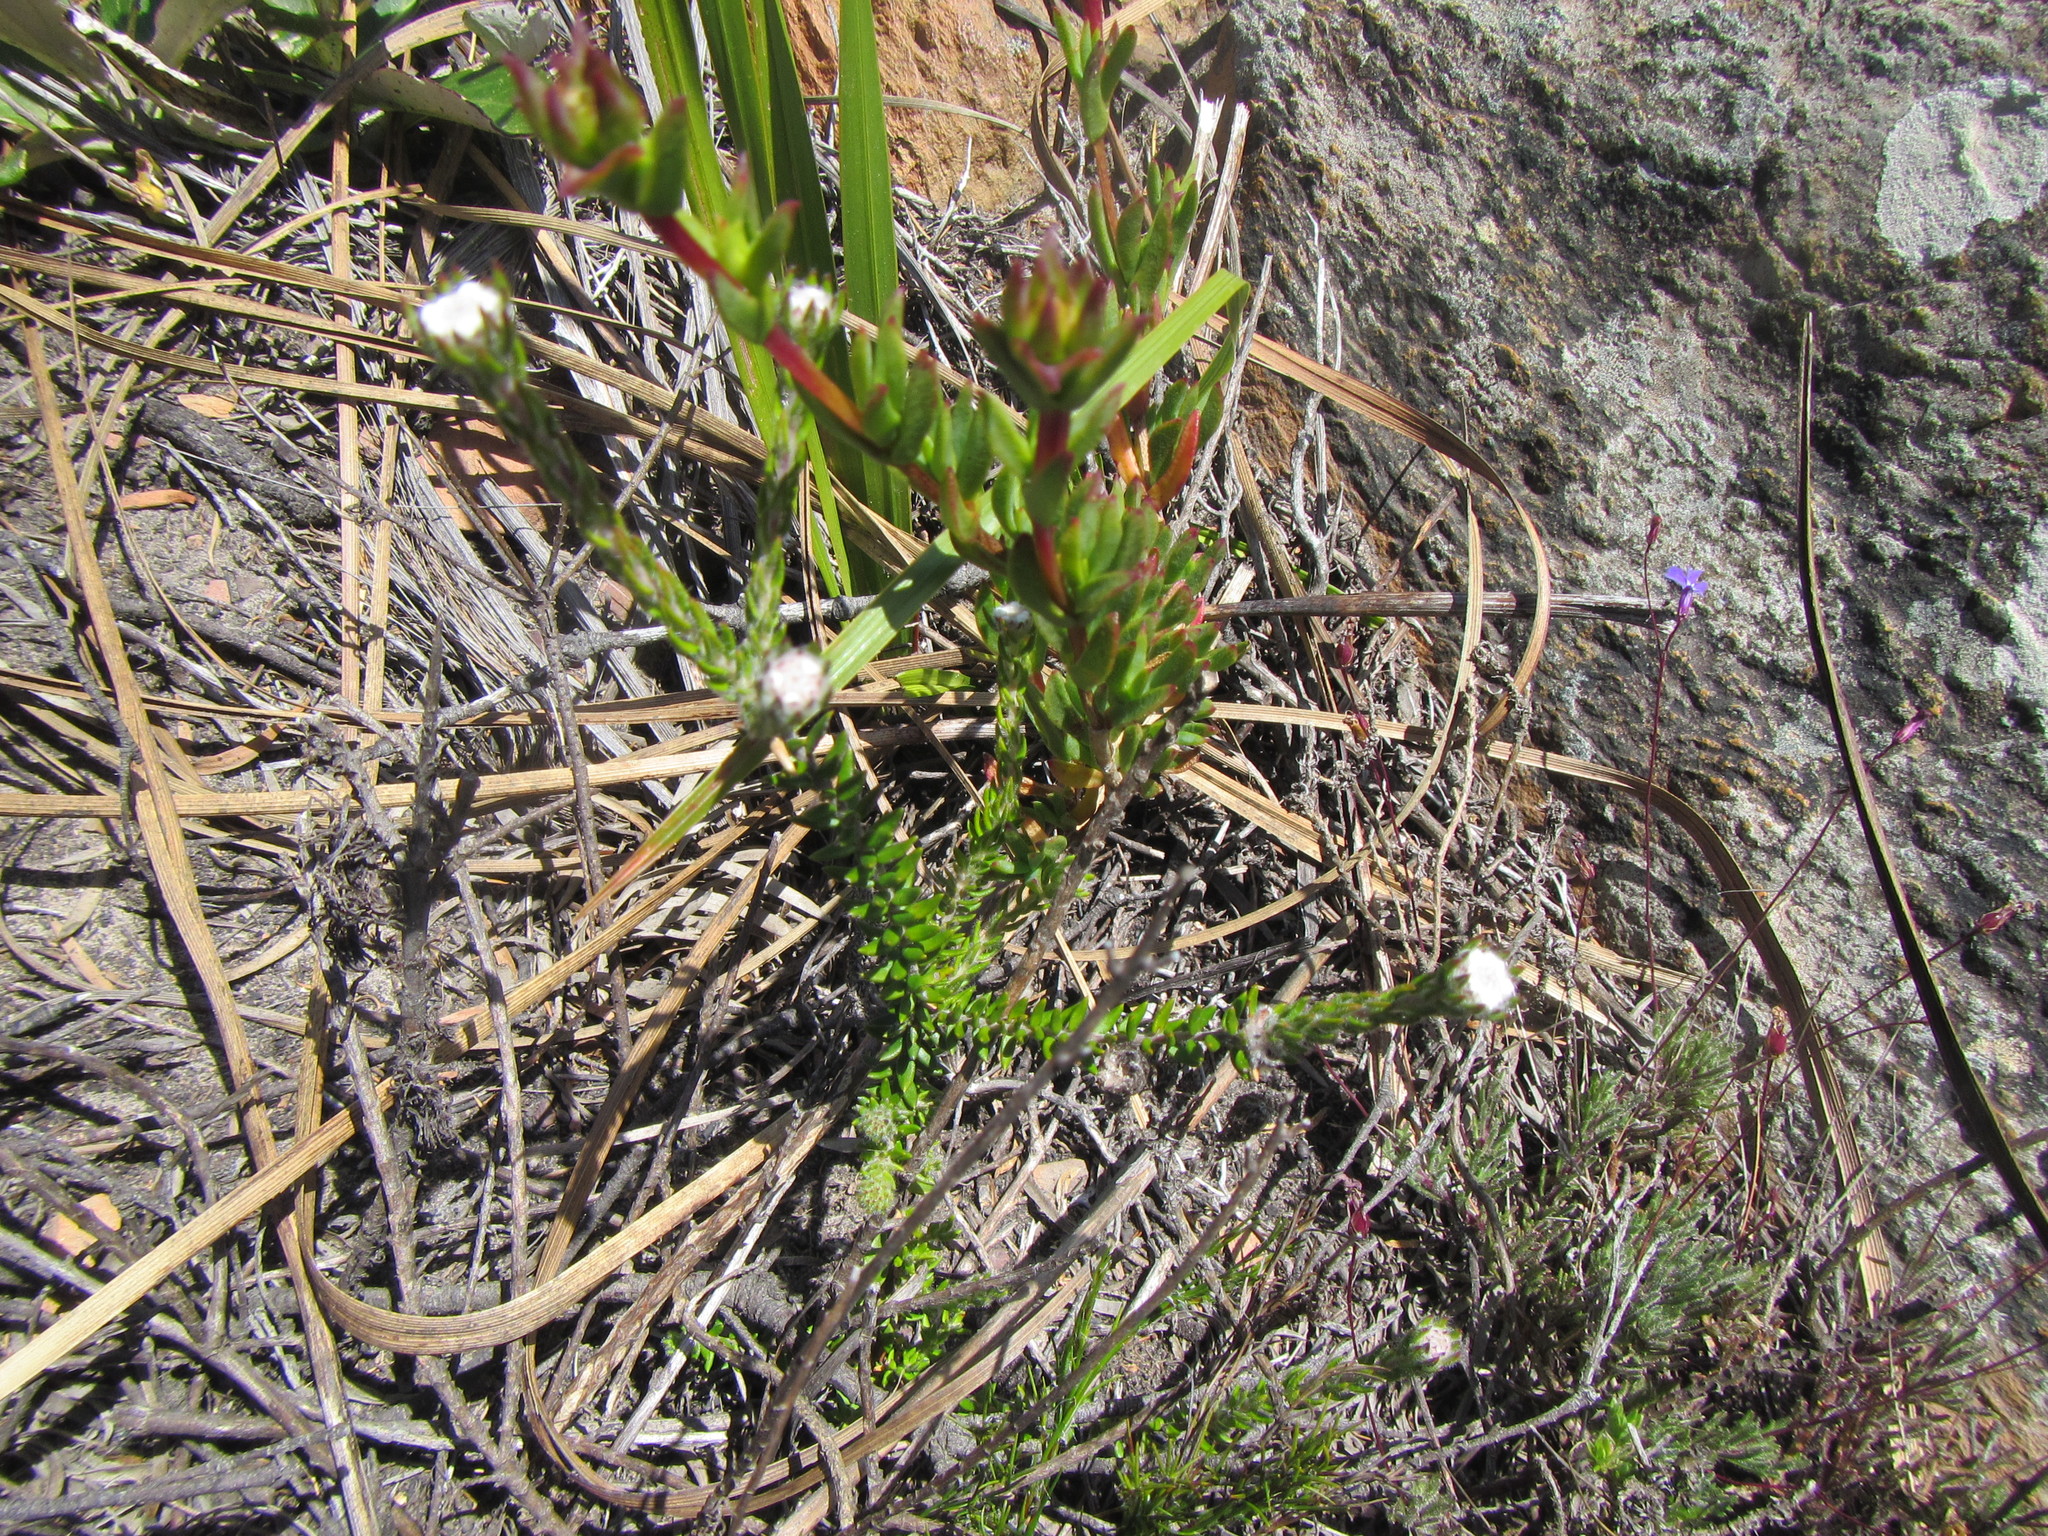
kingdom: Plantae
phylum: Tracheophyta
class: Magnoliopsida
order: Rosales
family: Rhamnaceae
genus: Phylica
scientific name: Phylica atrata
